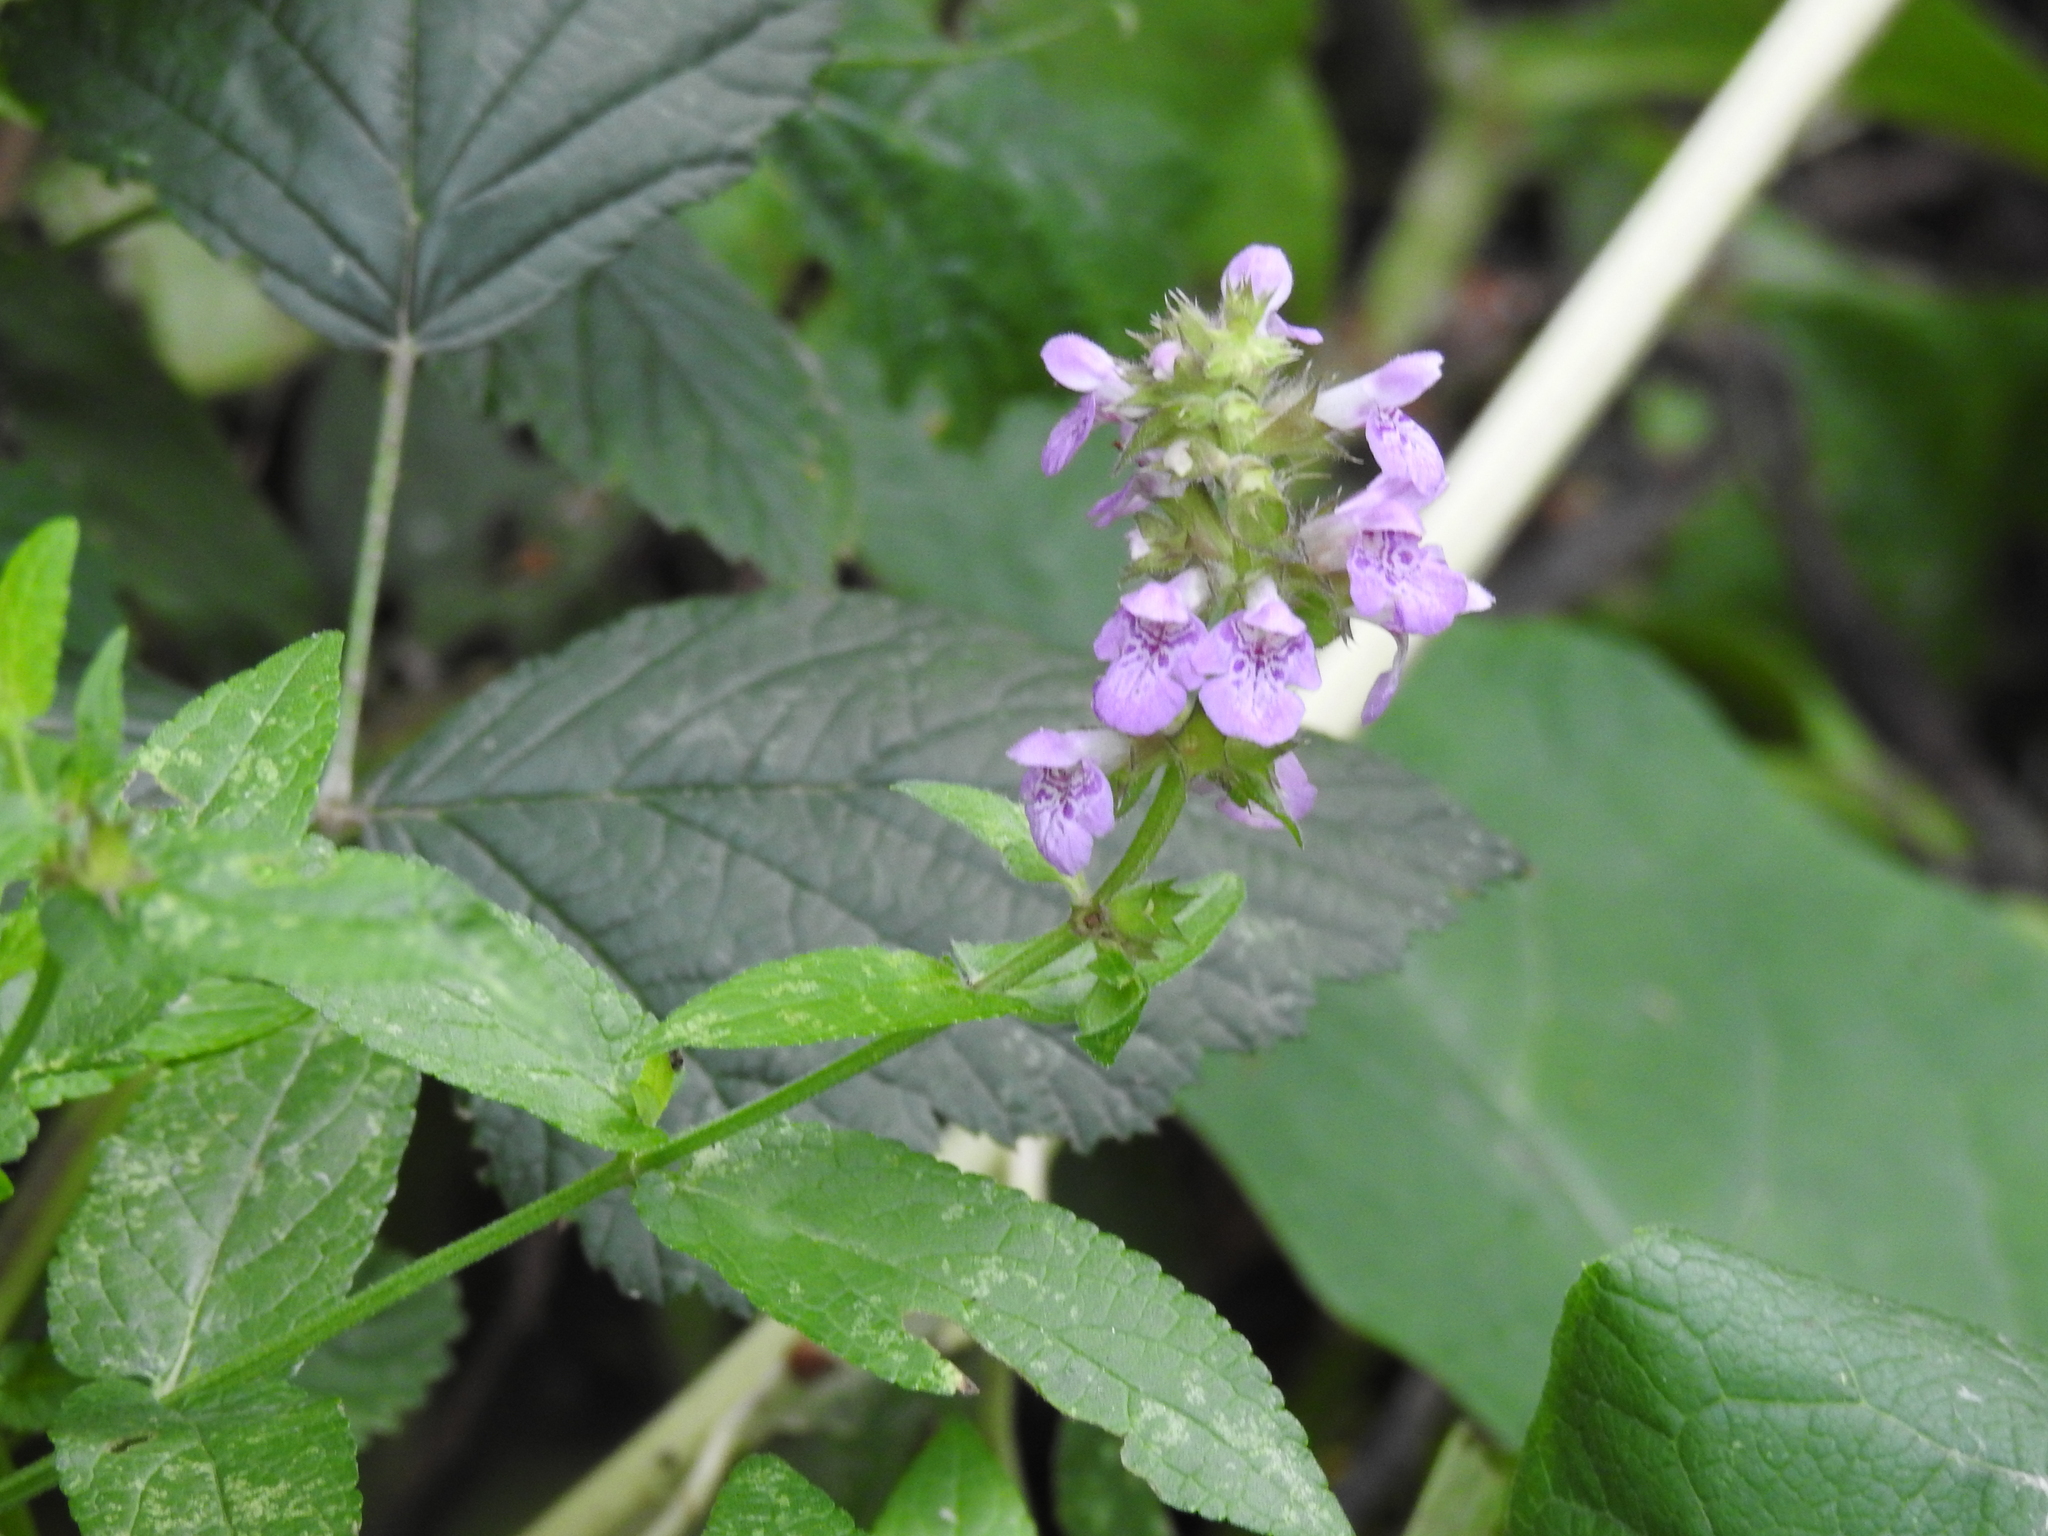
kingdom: Plantae
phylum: Tracheophyta
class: Magnoliopsida
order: Lamiales
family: Lamiaceae
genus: Stachys
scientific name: Stachys palustris
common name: Marsh woundwort
